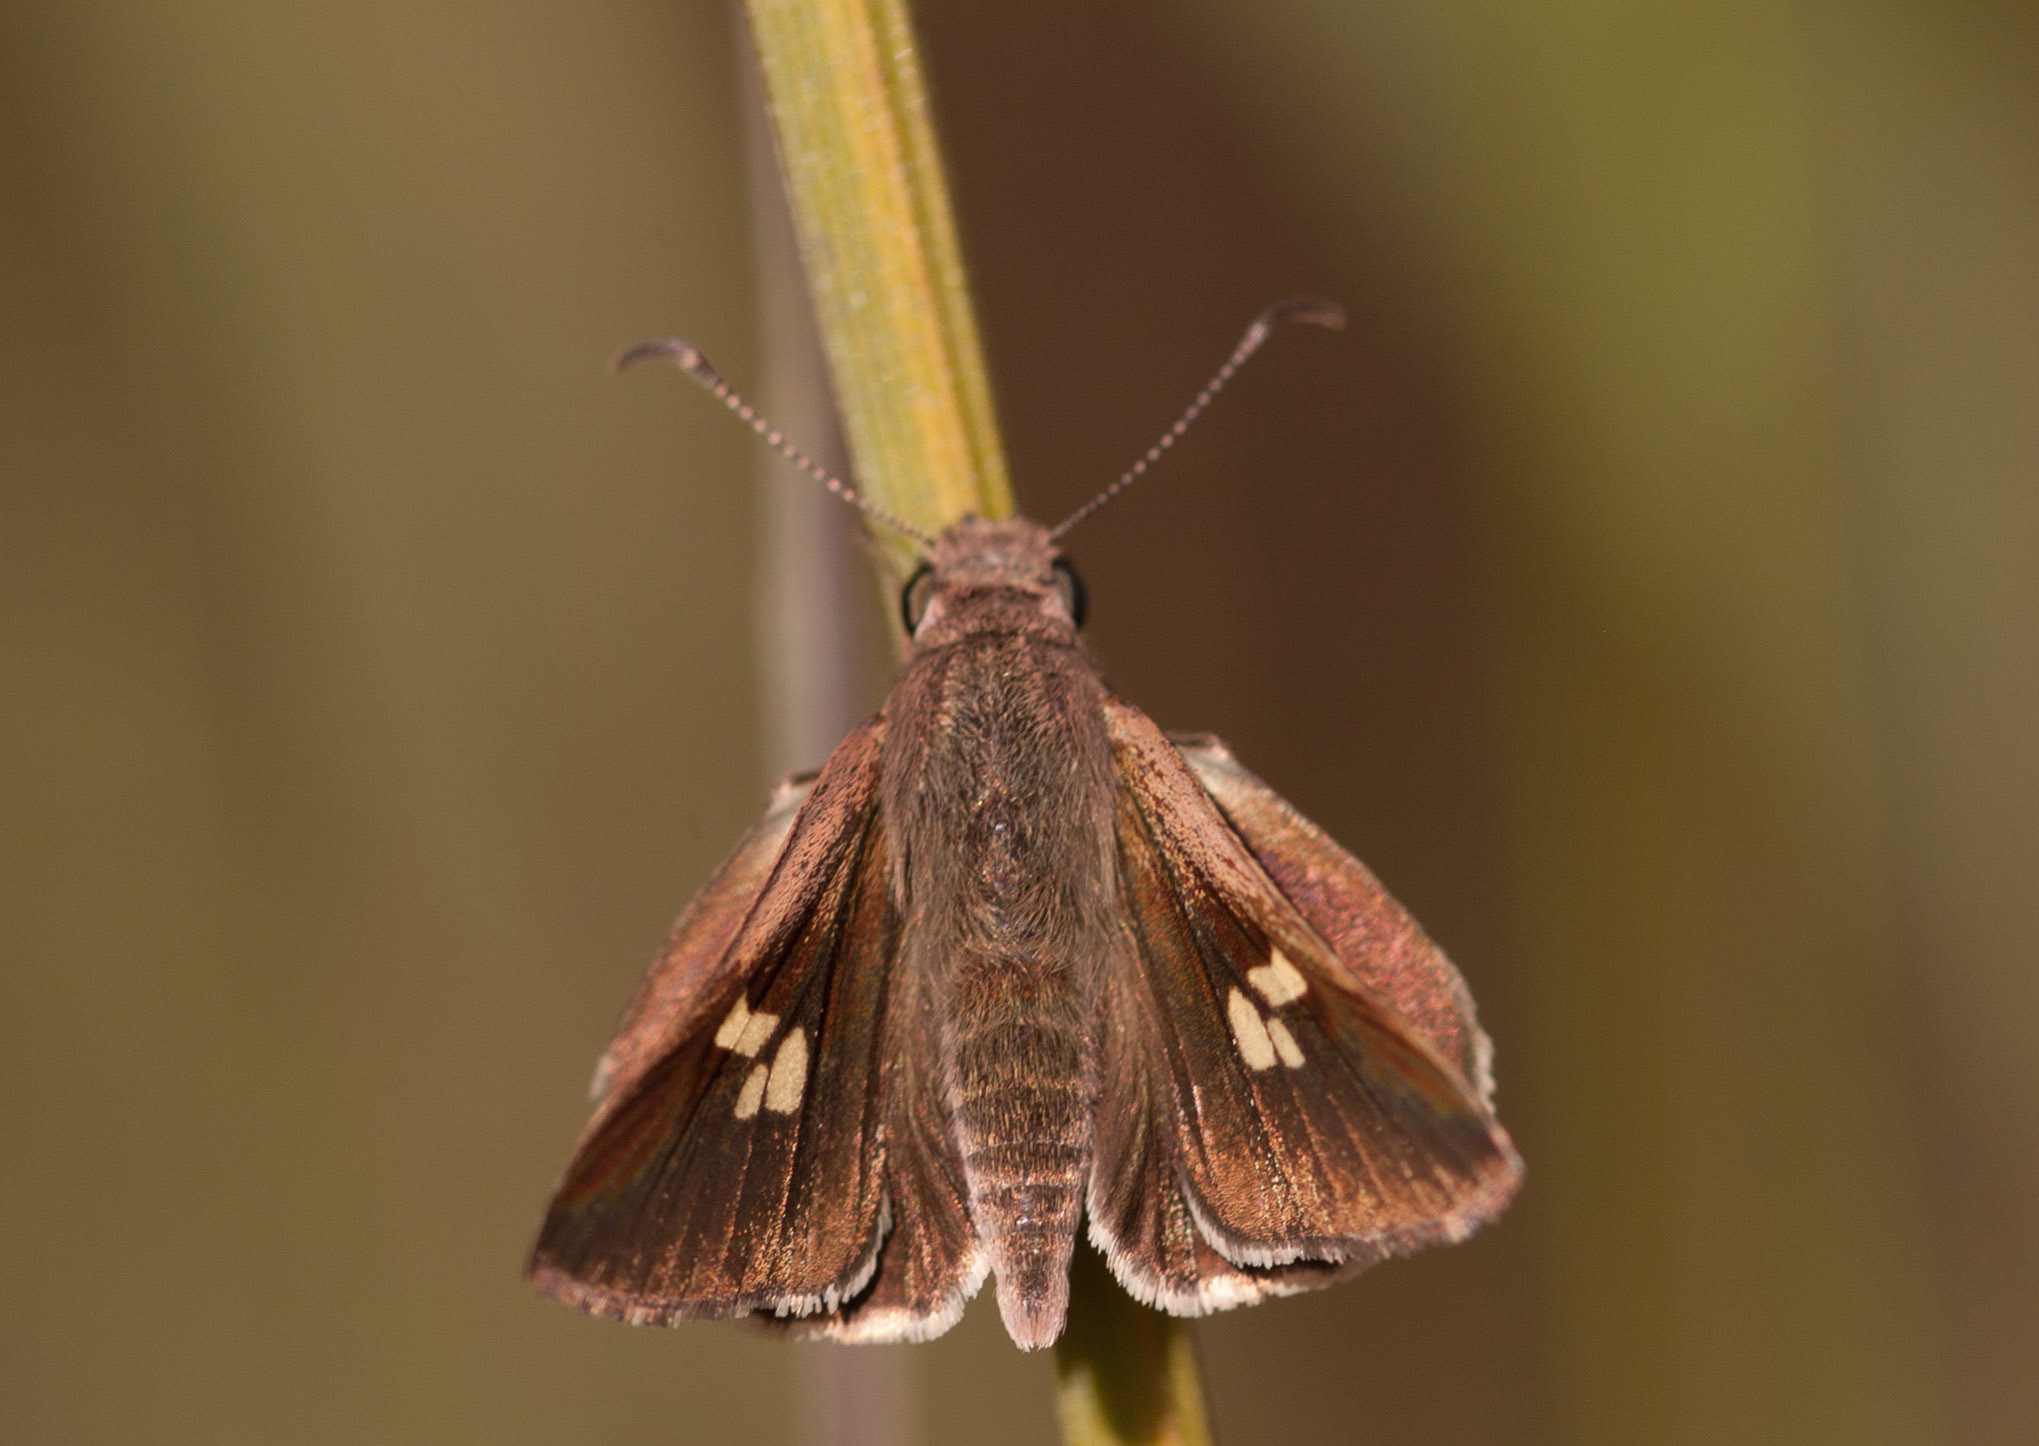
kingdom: Animalia
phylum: Arthropoda
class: Insecta
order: Lepidoptera
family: Hesperiidae
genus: Mesodina
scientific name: Mesodina halyzia
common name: Eastern iris-skipper
